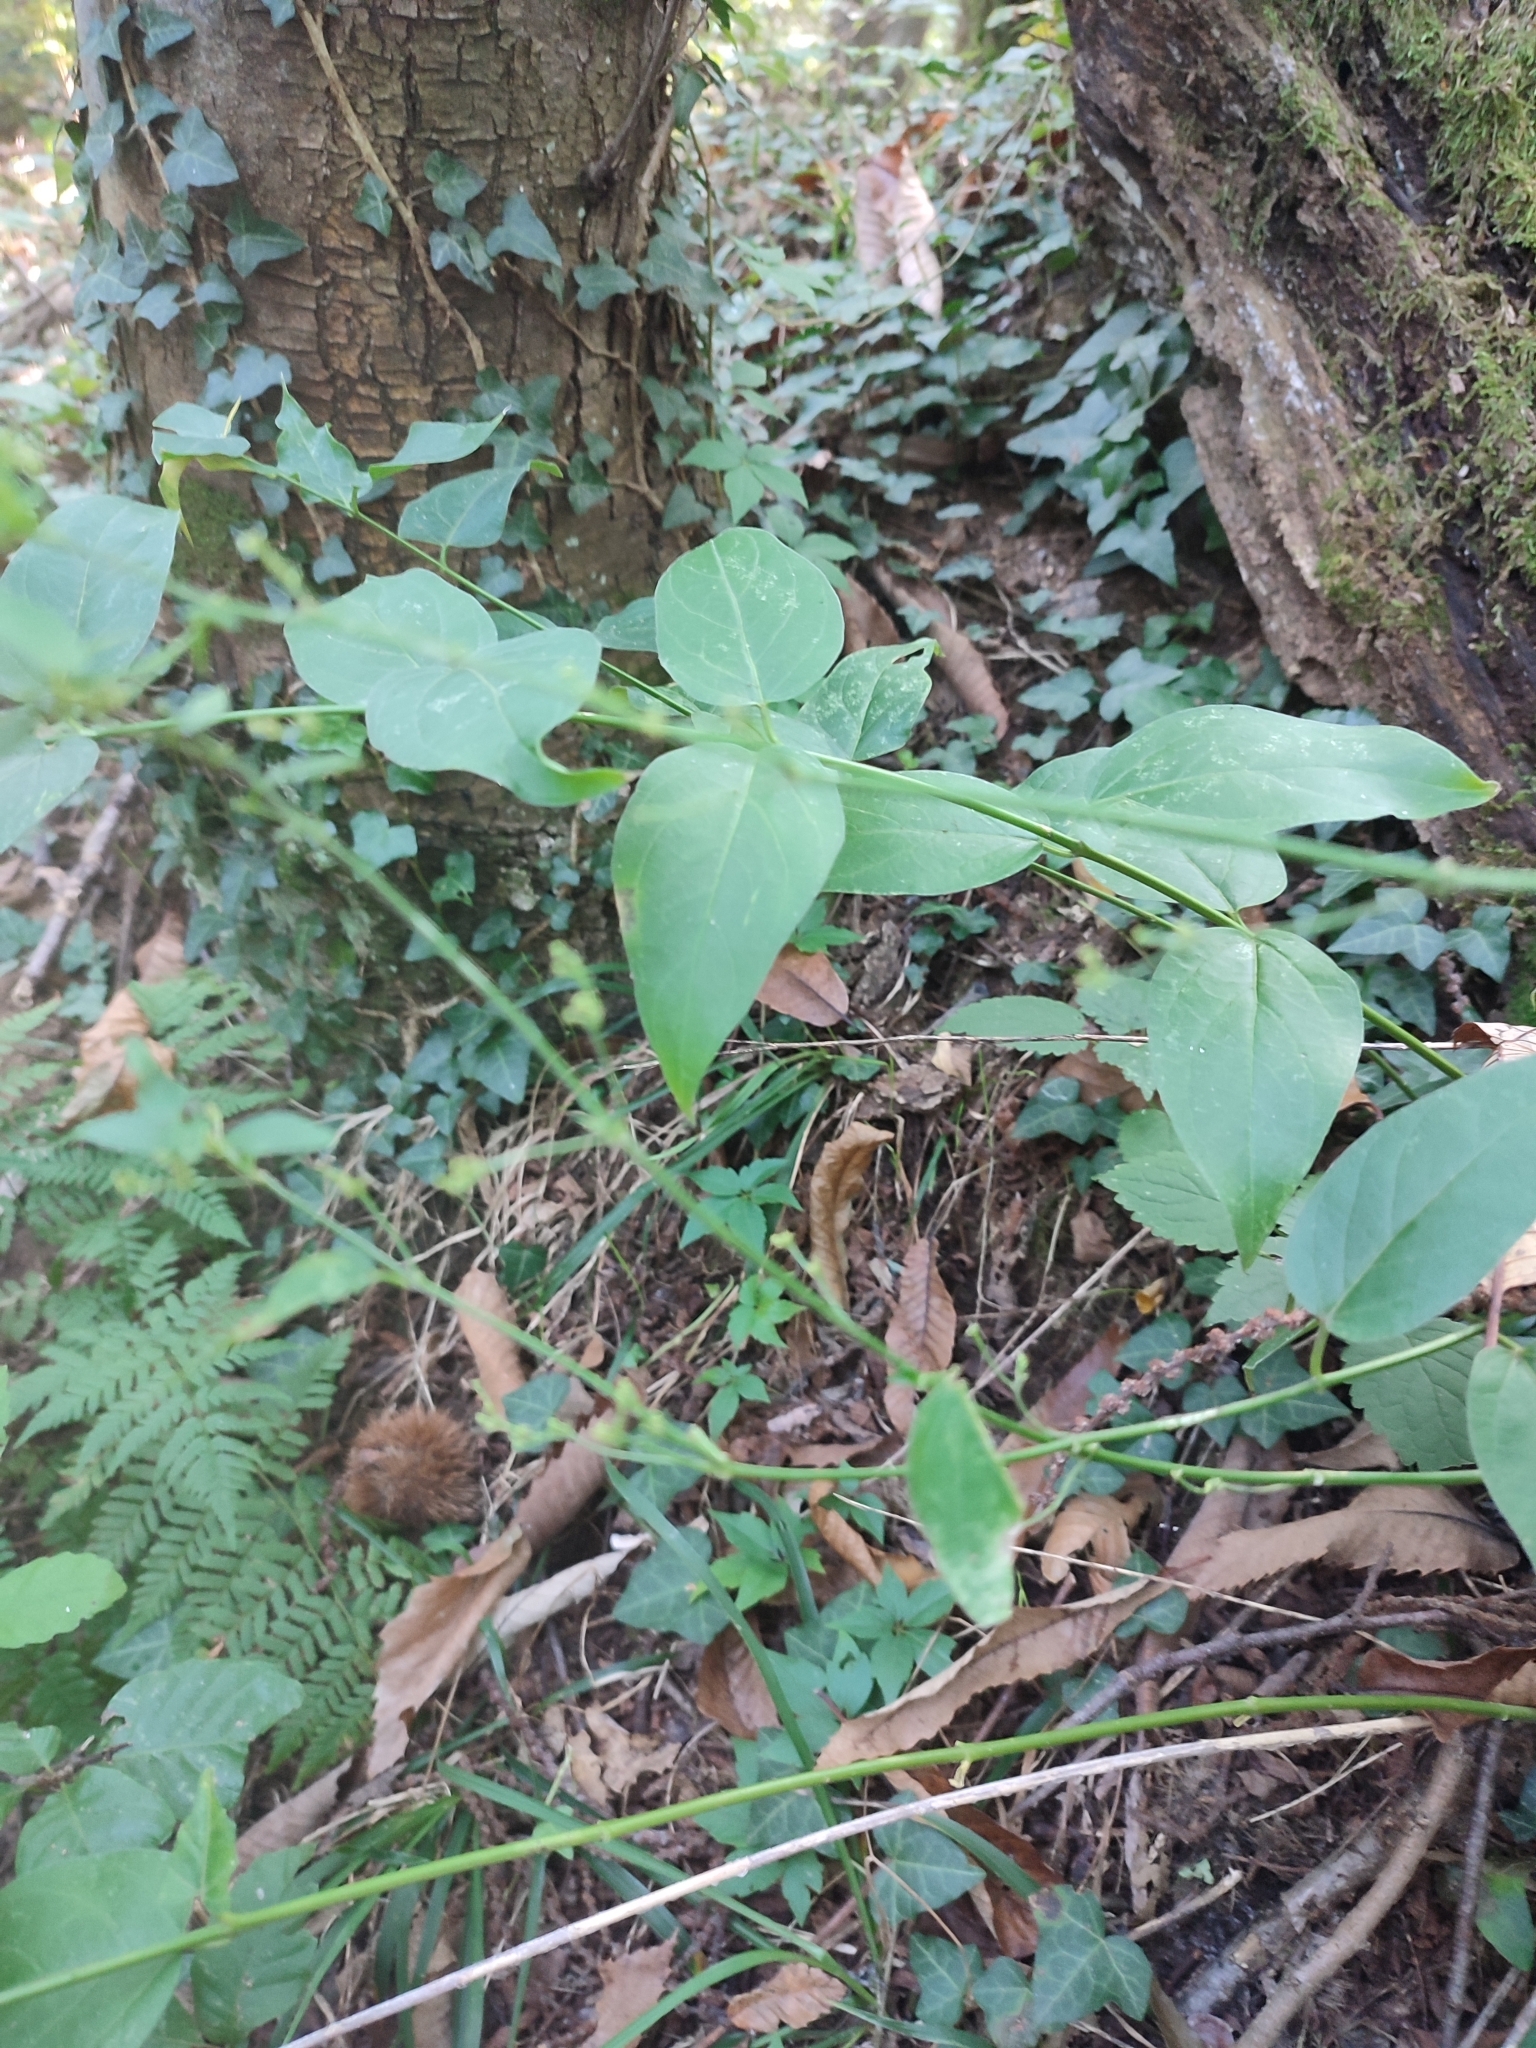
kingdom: Plantae
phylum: Tracheophyta
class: Magnoliopsida
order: Gentianales
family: Apocynaceae
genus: Vincetoxicum
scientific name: Vincetoxicum hirundinaria
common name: White swallowwort
